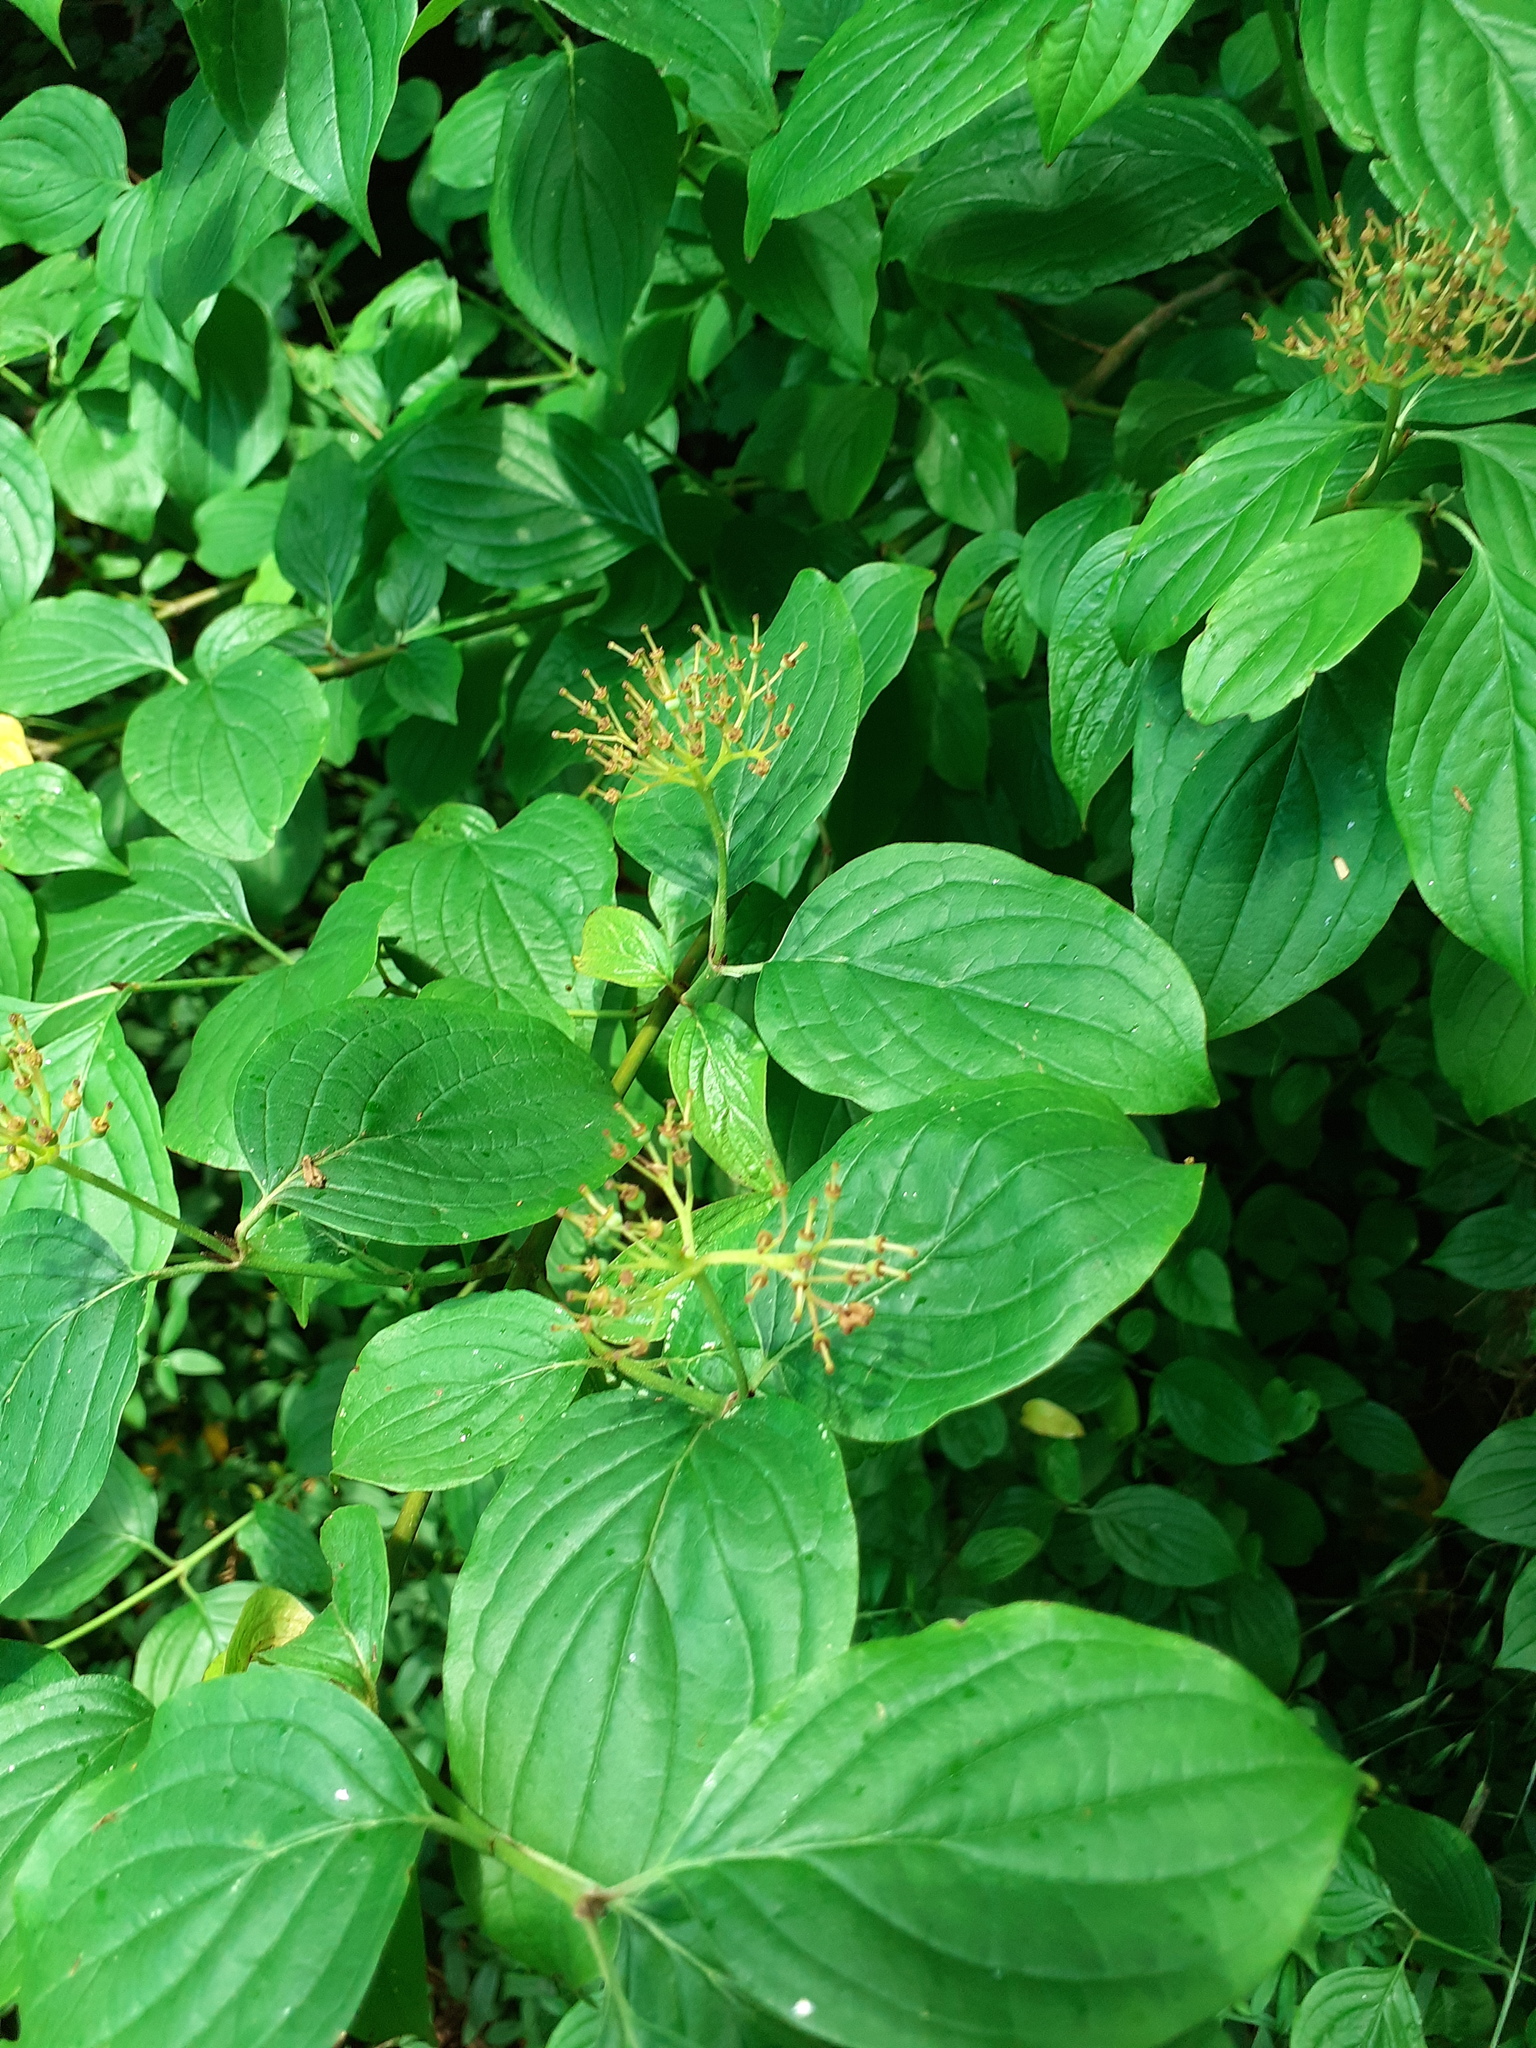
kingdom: Plantae
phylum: Tracheophyta
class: Magnoliopsida
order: Cornales
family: Cornaceae
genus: Cornus
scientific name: Cornus sanguinea
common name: Dogwood
